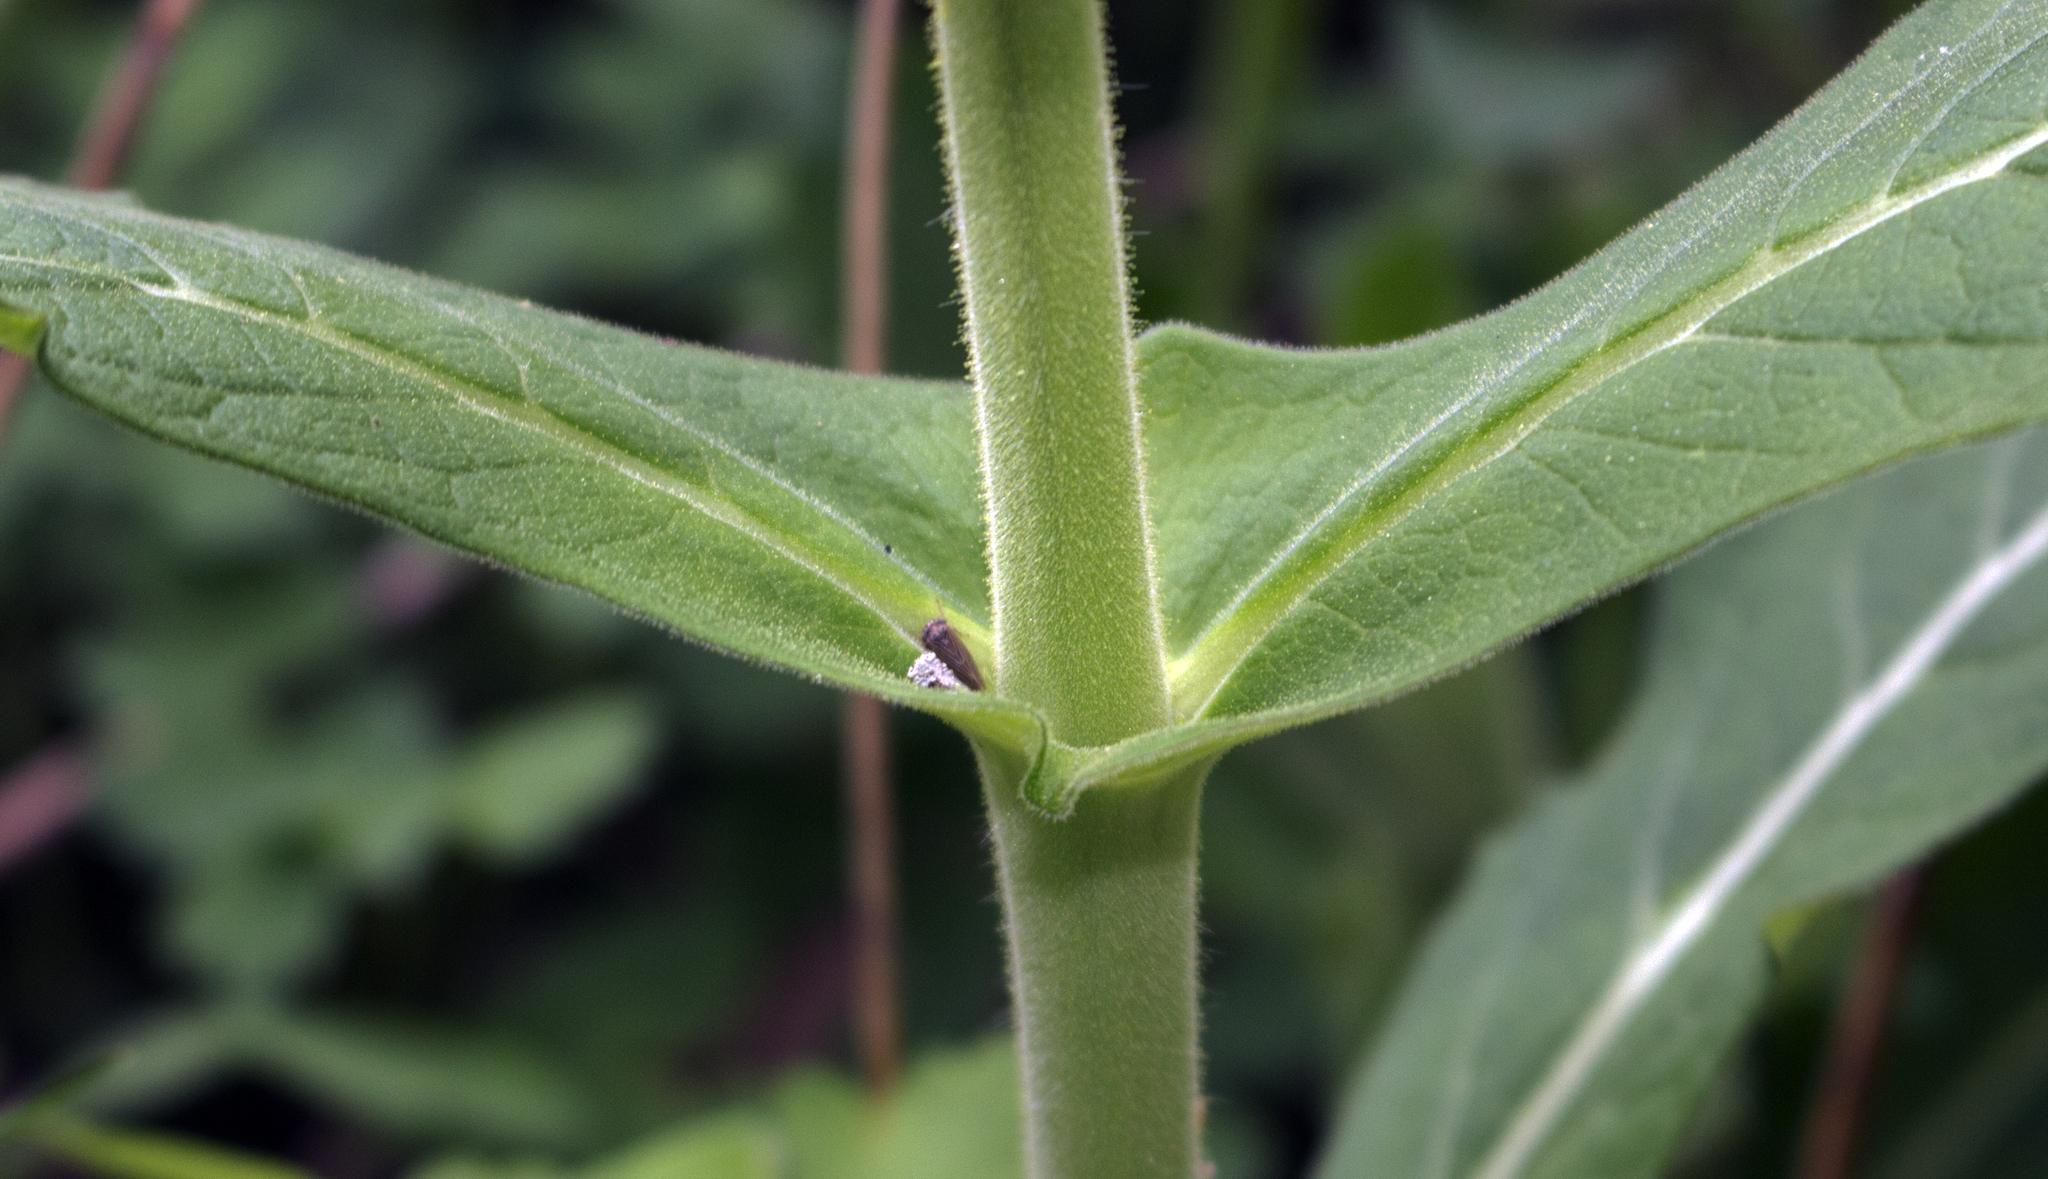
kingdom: Plantae
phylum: Tracheophyta
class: Magnoliopsida
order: Dipsacales
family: Caprifoliaceae
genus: Triosteum
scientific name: Triosteum perfoliatum
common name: Common horse-gentian
